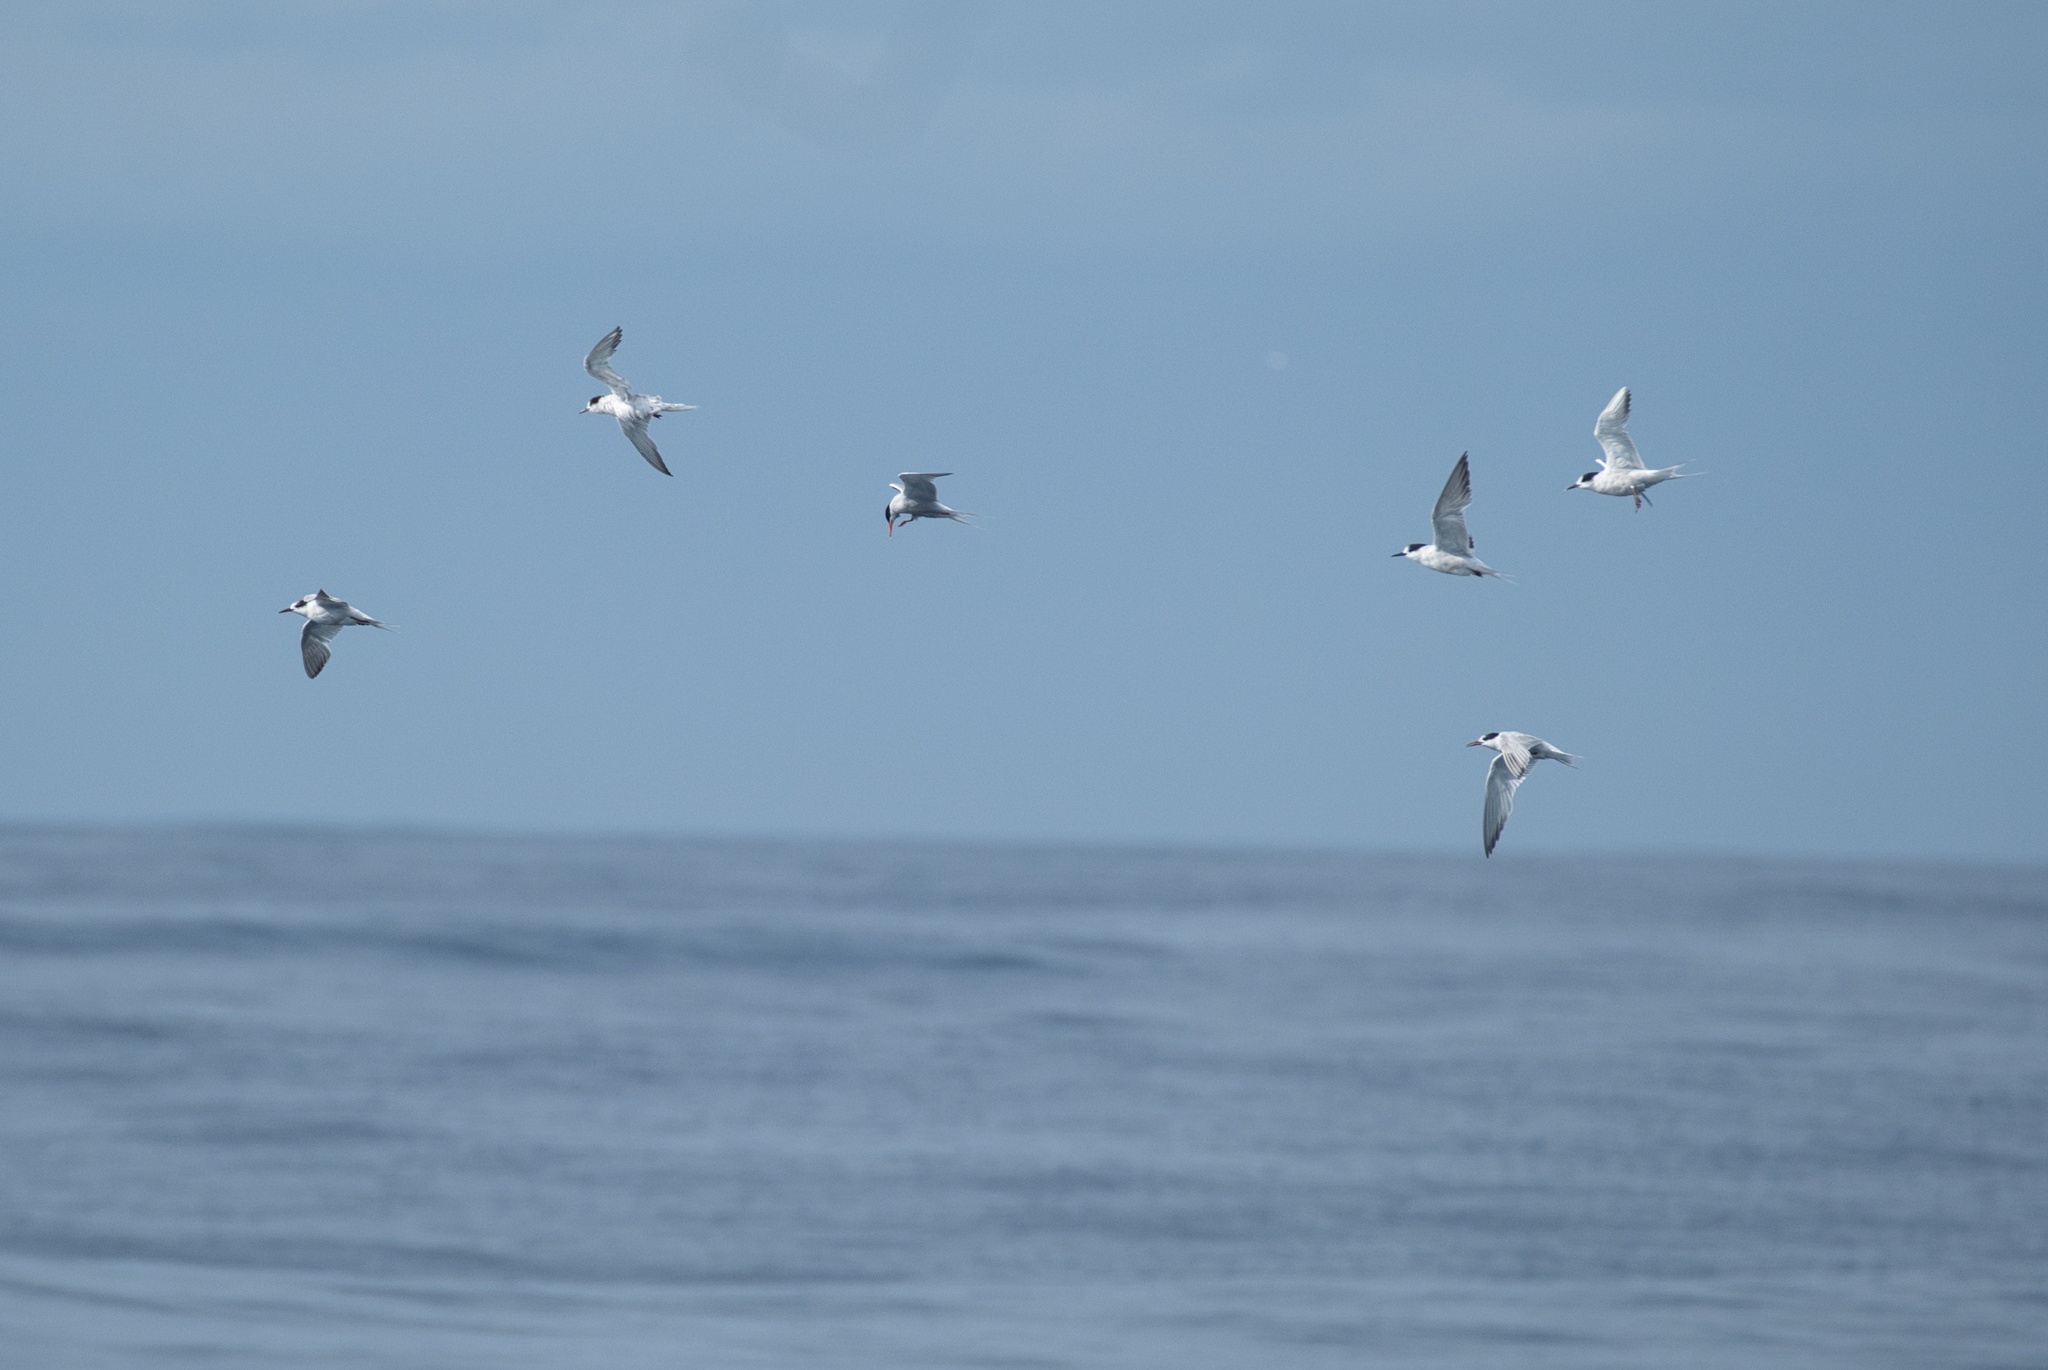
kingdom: Animalia
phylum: Chordata
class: Aves
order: Charadriiformes
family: Laridae
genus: Sterna
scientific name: Sterna hirundo
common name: Common tern
